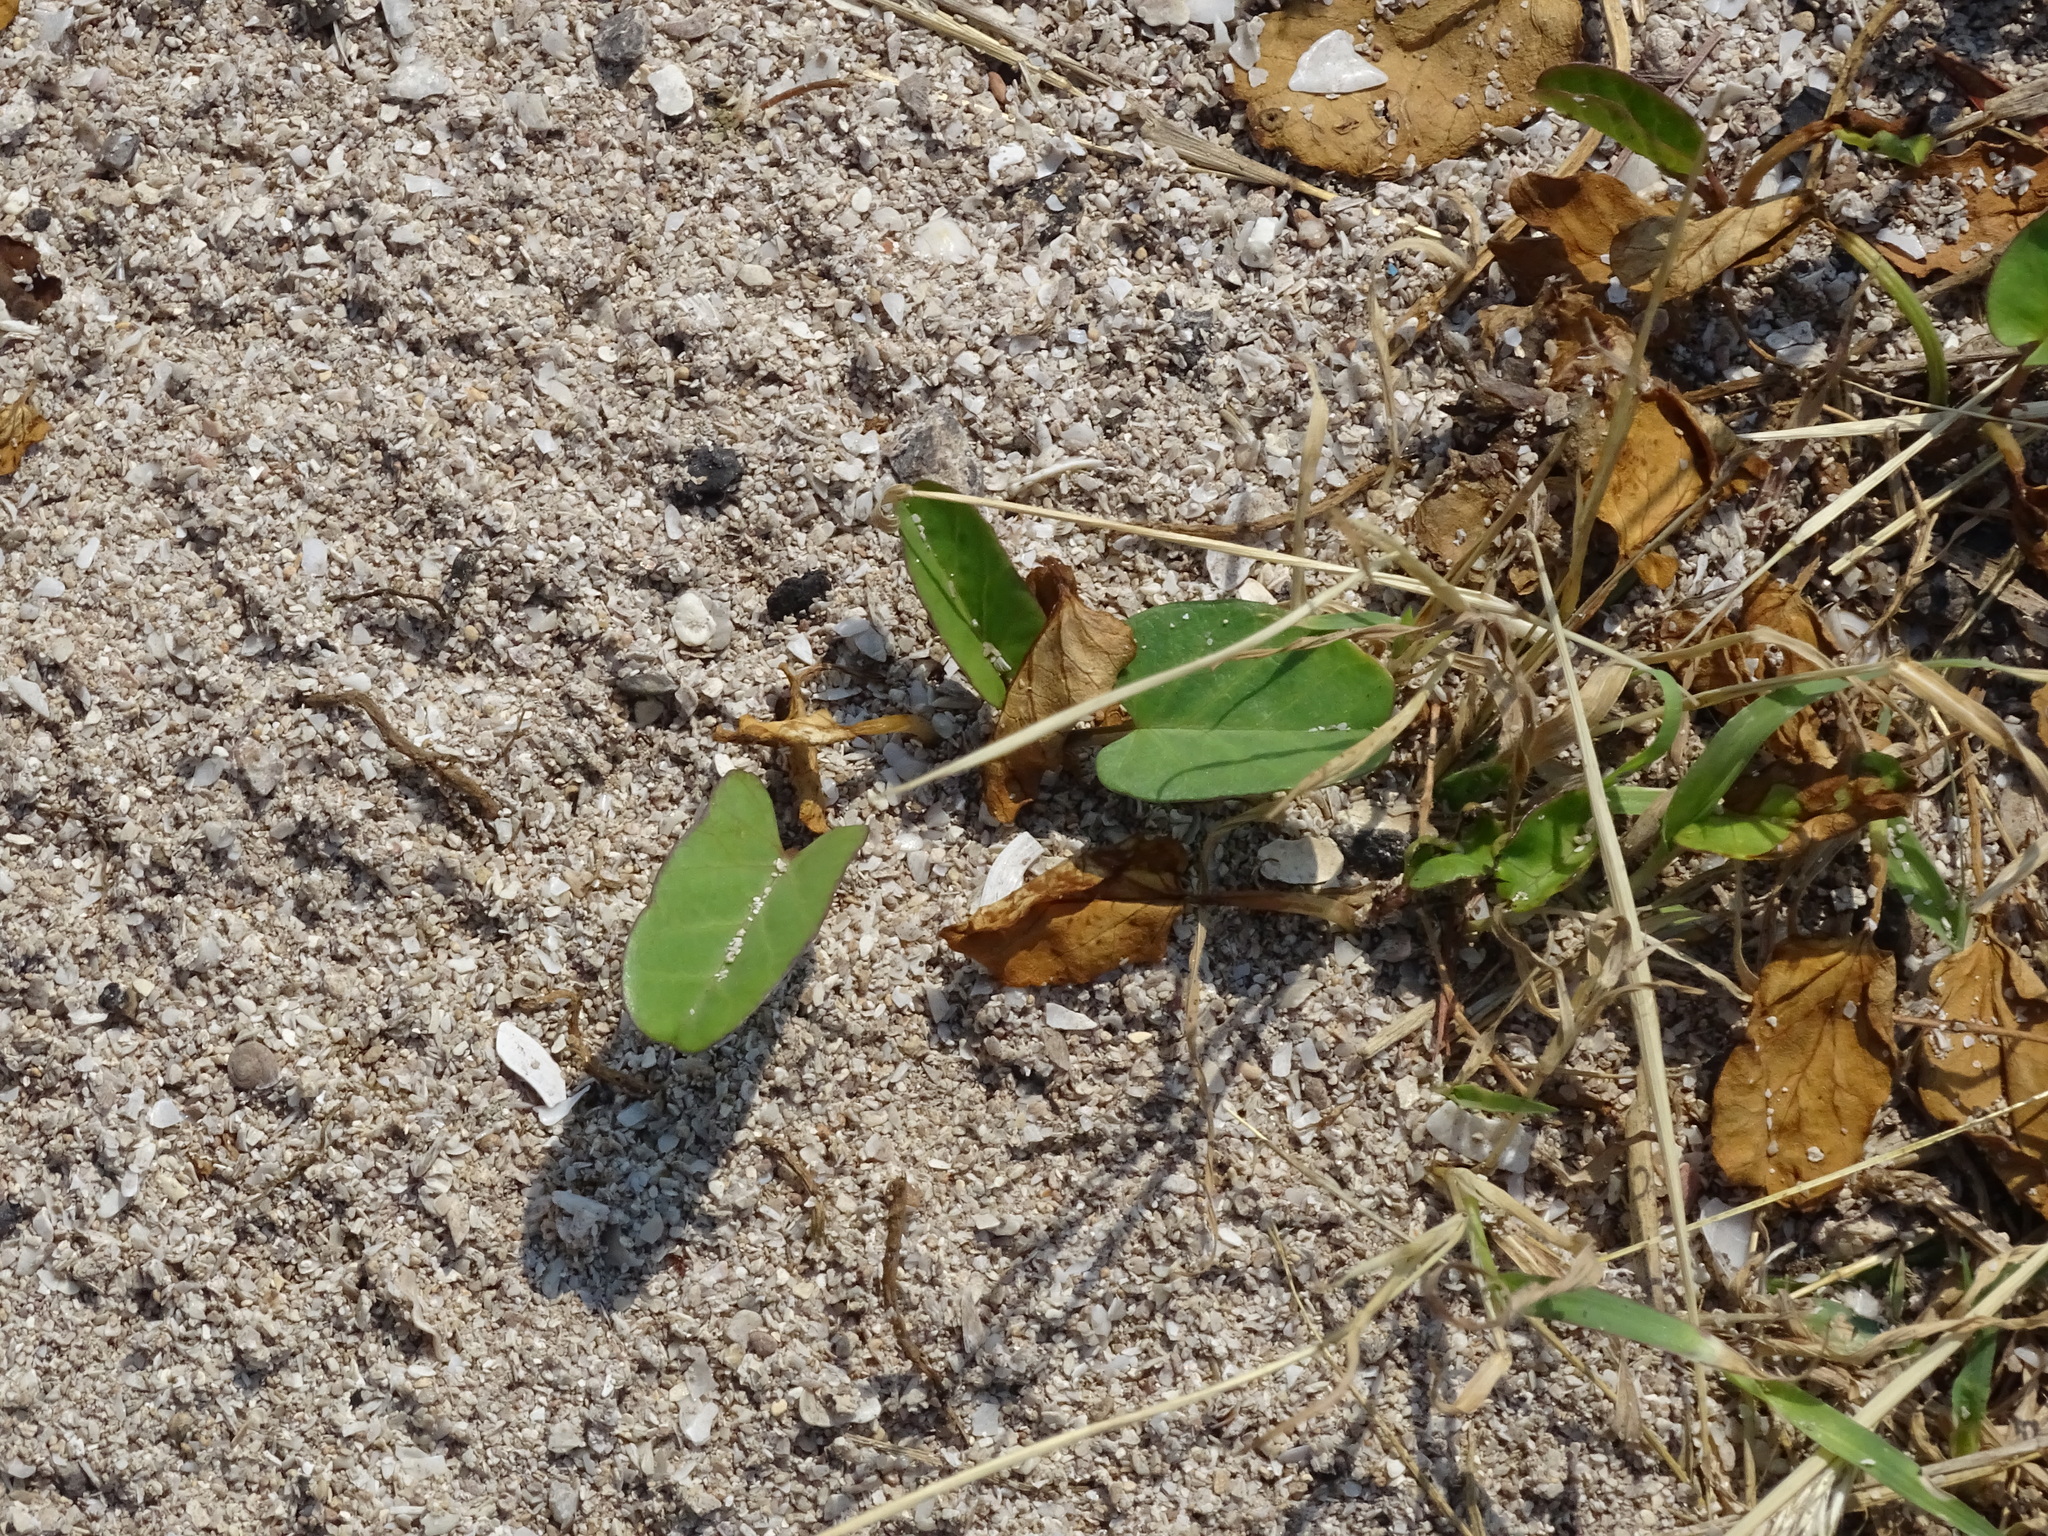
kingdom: Plantae
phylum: Tracheophyta
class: Magnoliopsida
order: Solanales
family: Convolvulaceae
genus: Ipomoea
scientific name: Ipomoea imperati
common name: Fiddle-leaf morning-glory
